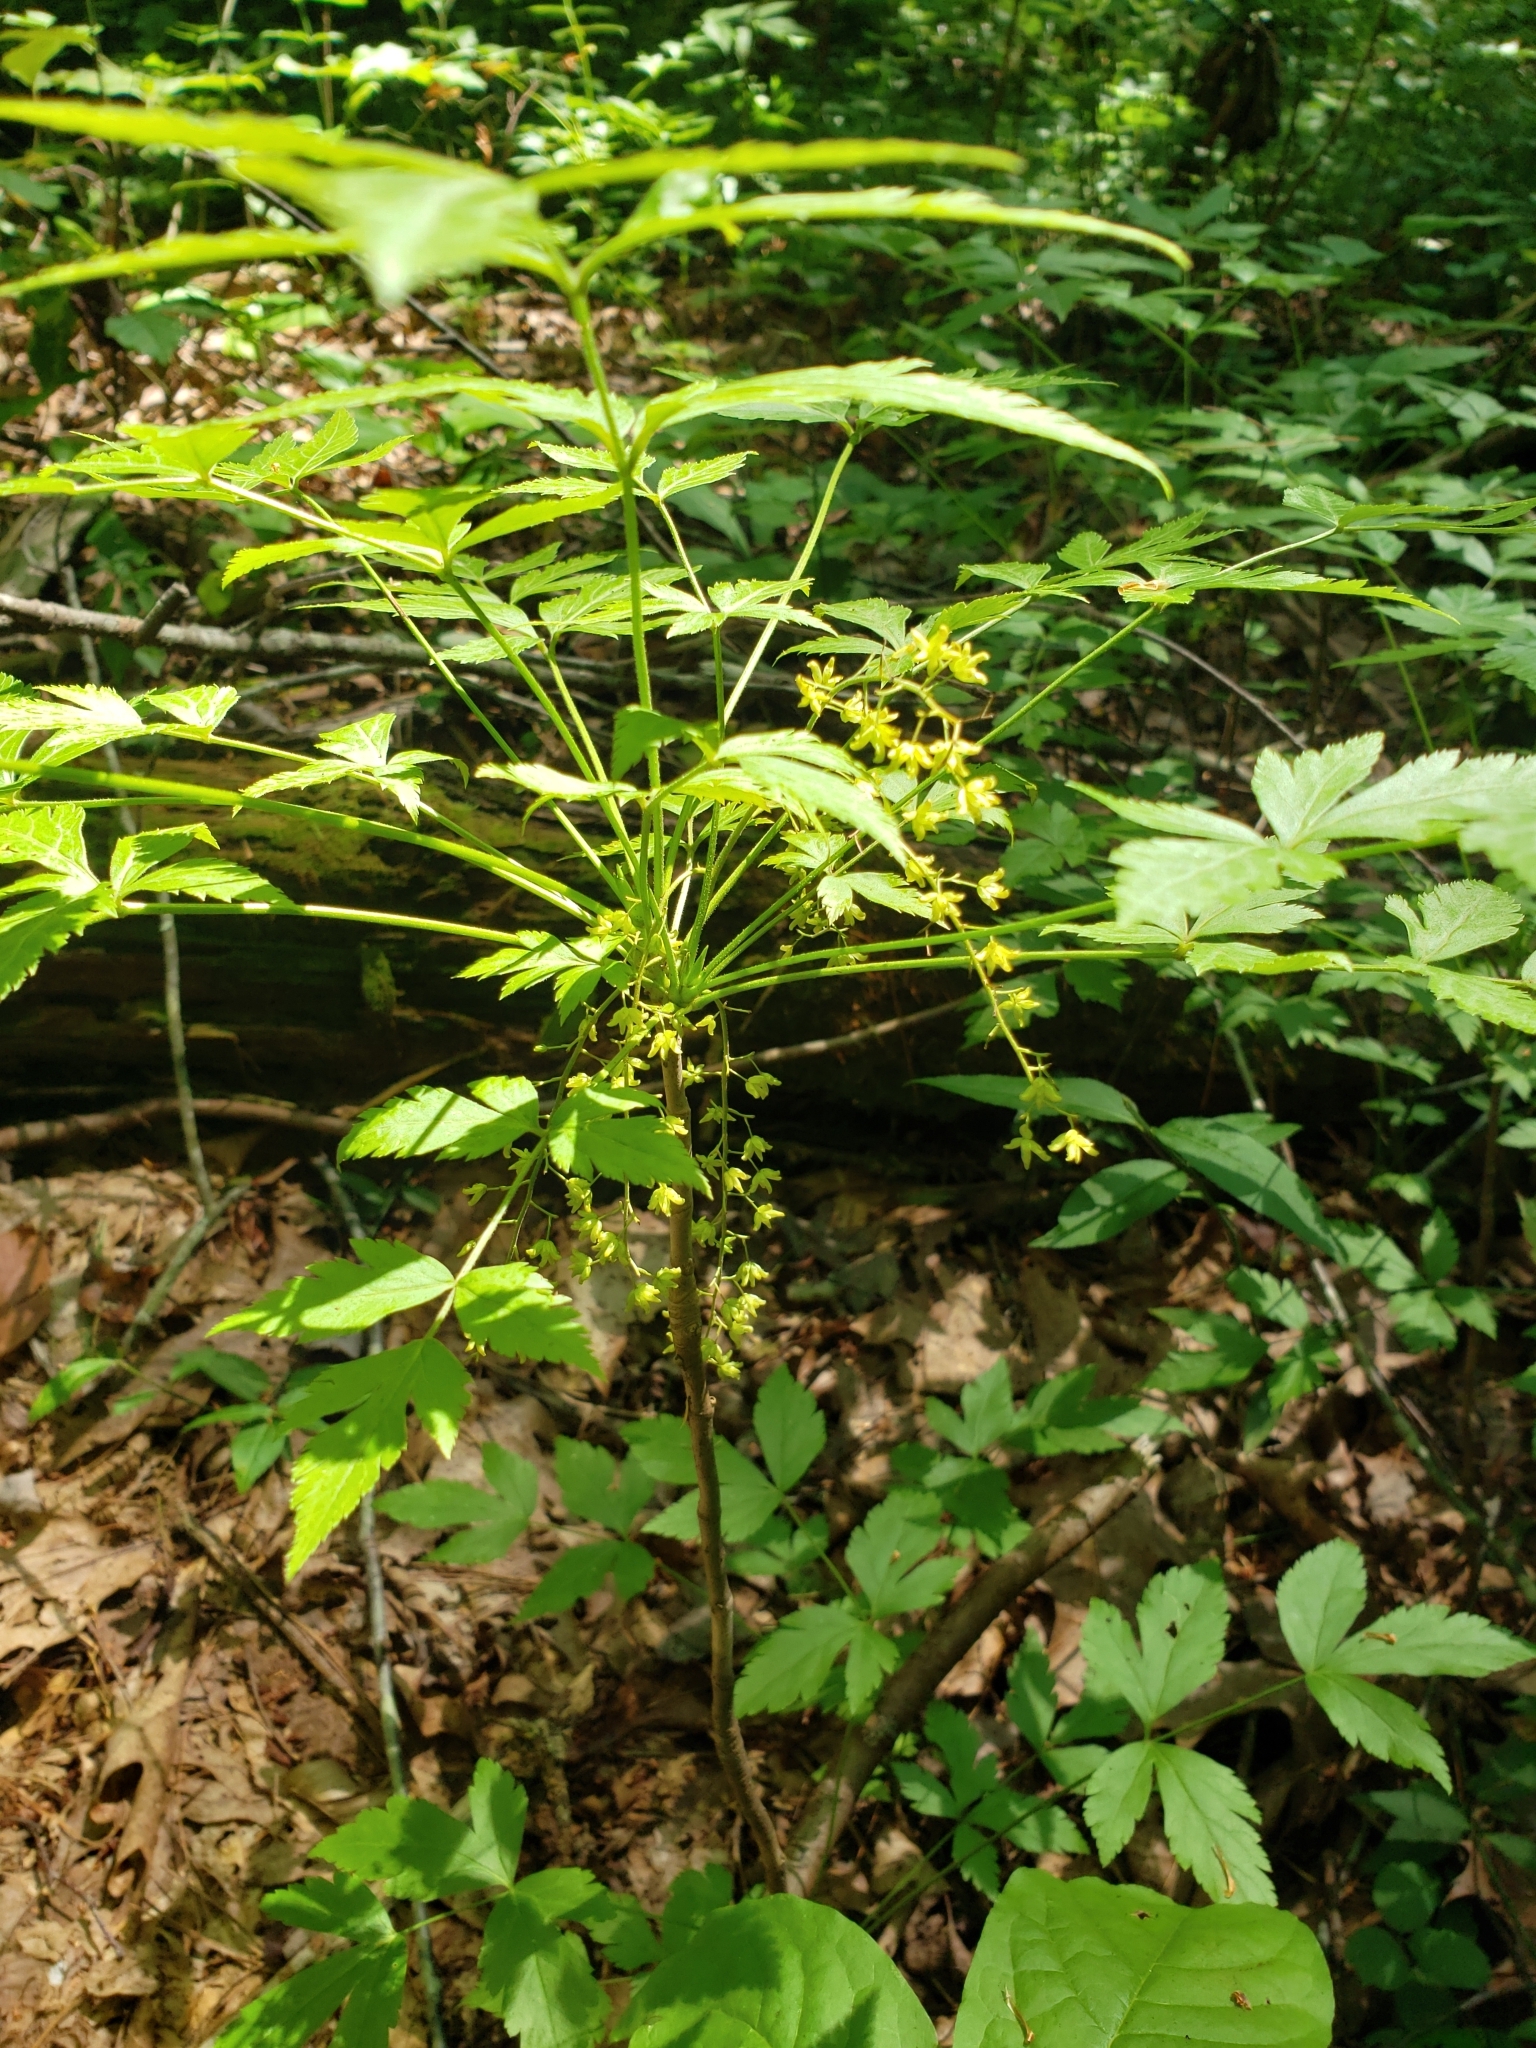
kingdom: Plantae
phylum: Tracheophyta
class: Magnoliopsida
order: Ranunculales
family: Ranunculaceae
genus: Xanthorhiza
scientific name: Xanthorhiza simplicissima
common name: Yellowroot
